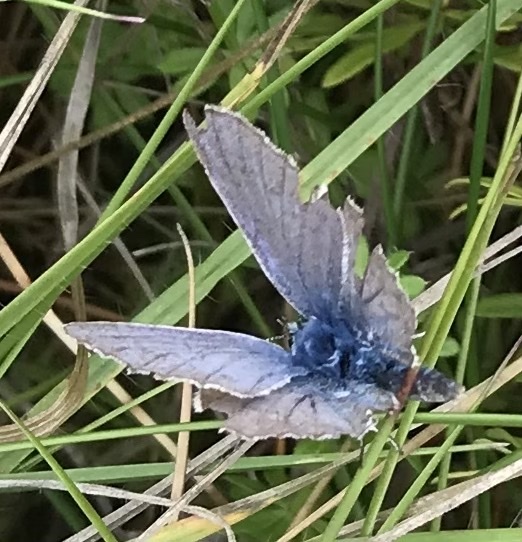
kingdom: Animalia
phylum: Arthropoda
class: Insecta
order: Lepidoptera
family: Lycaenidae
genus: Polyommatus
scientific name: Polyommatus icarus
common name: Common blue
